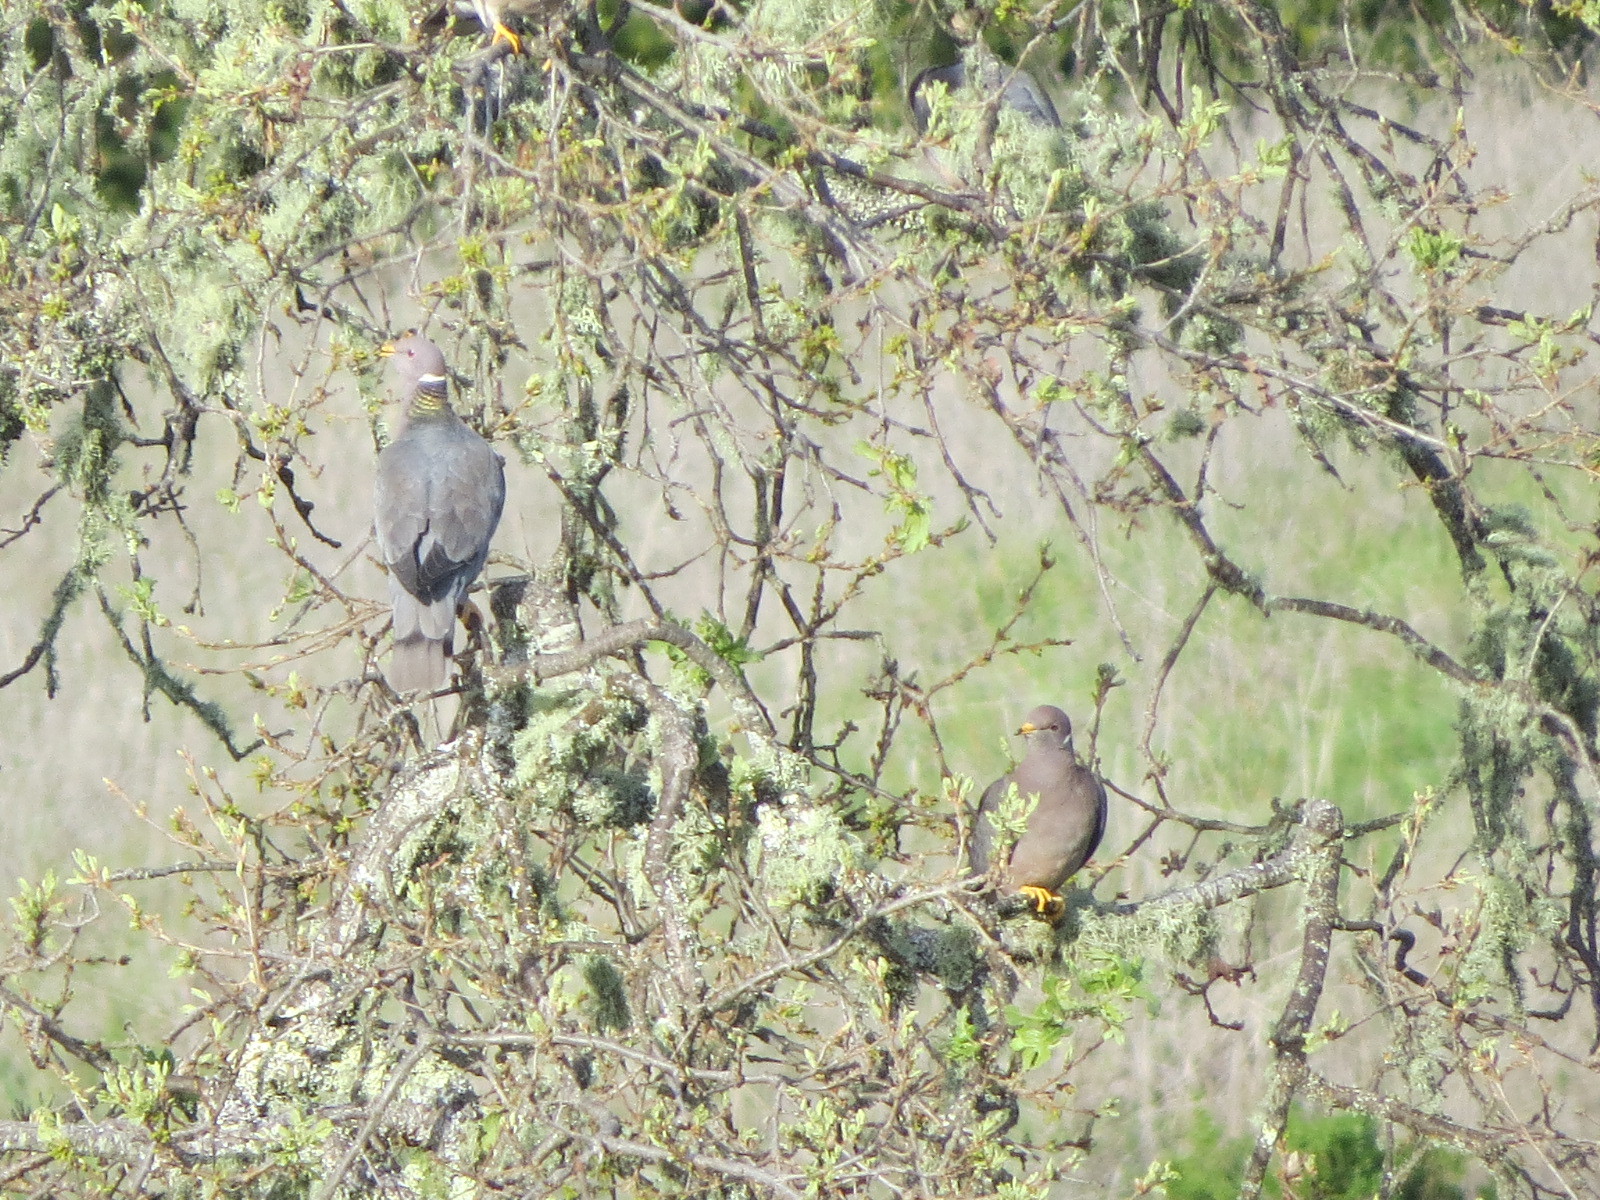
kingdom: Animalia
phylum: Chordata
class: Aves
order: Columbiformes
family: Columbidae
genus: Patagioenas
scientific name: Patagioenas fasciata
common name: Band-tailed pigeon
